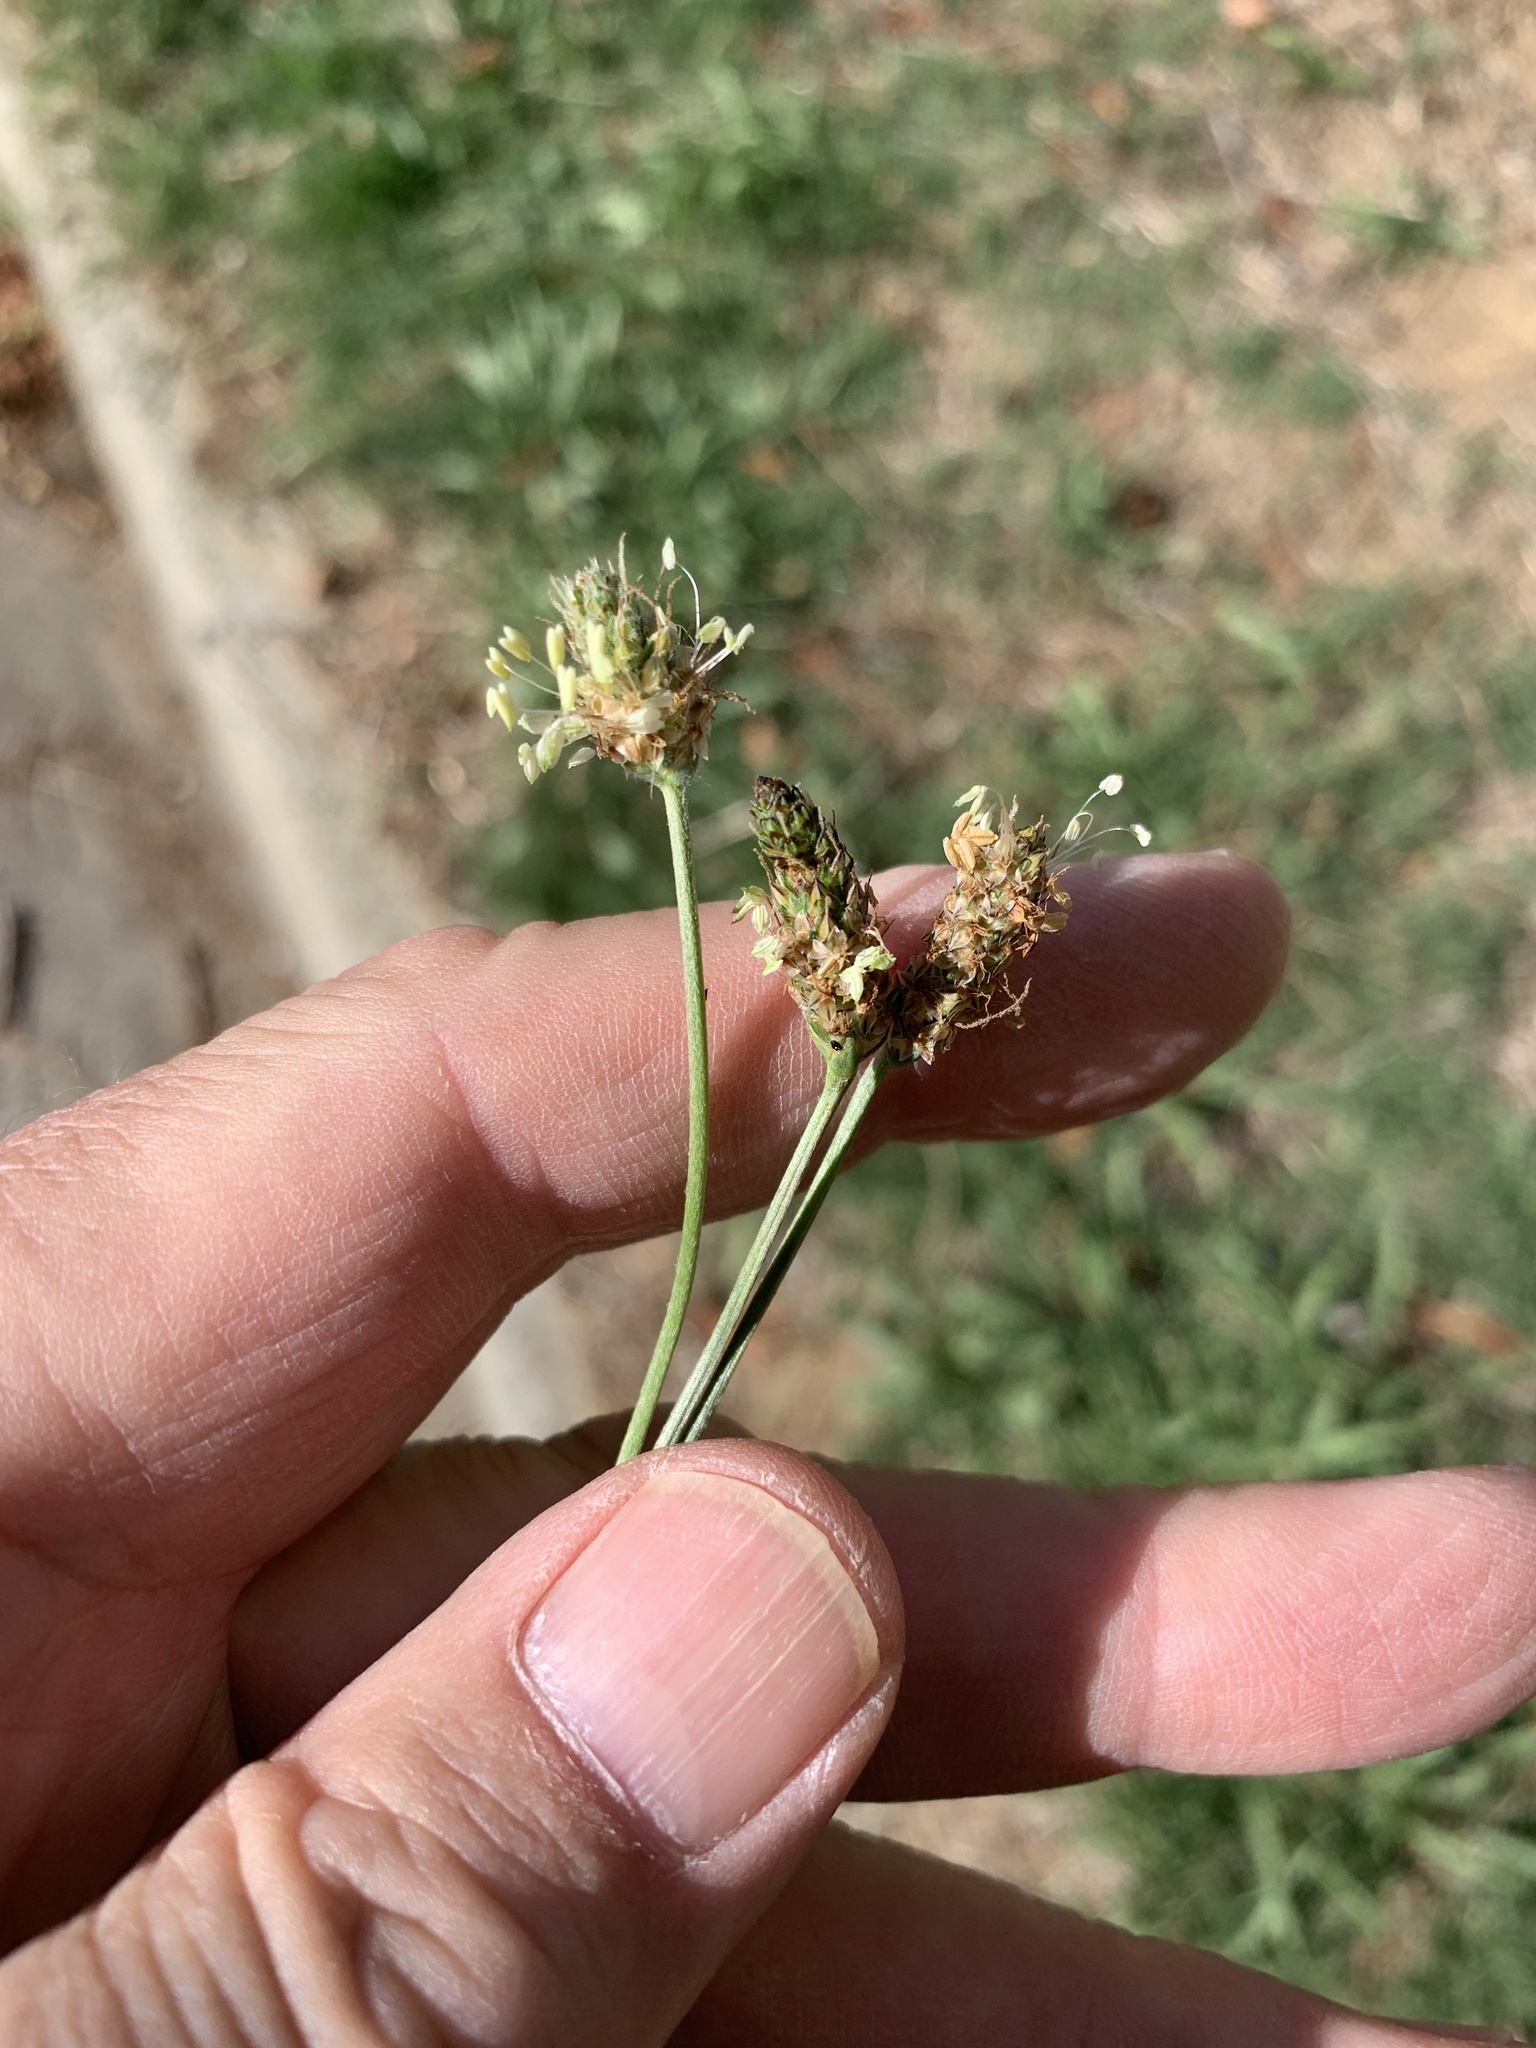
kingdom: Plantae
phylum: Tracheophyta
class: Magnoliopsida
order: Lamiales
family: Plantaginaceae
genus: Plantago
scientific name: Plantago lanceolata
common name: Ribwort plantain
